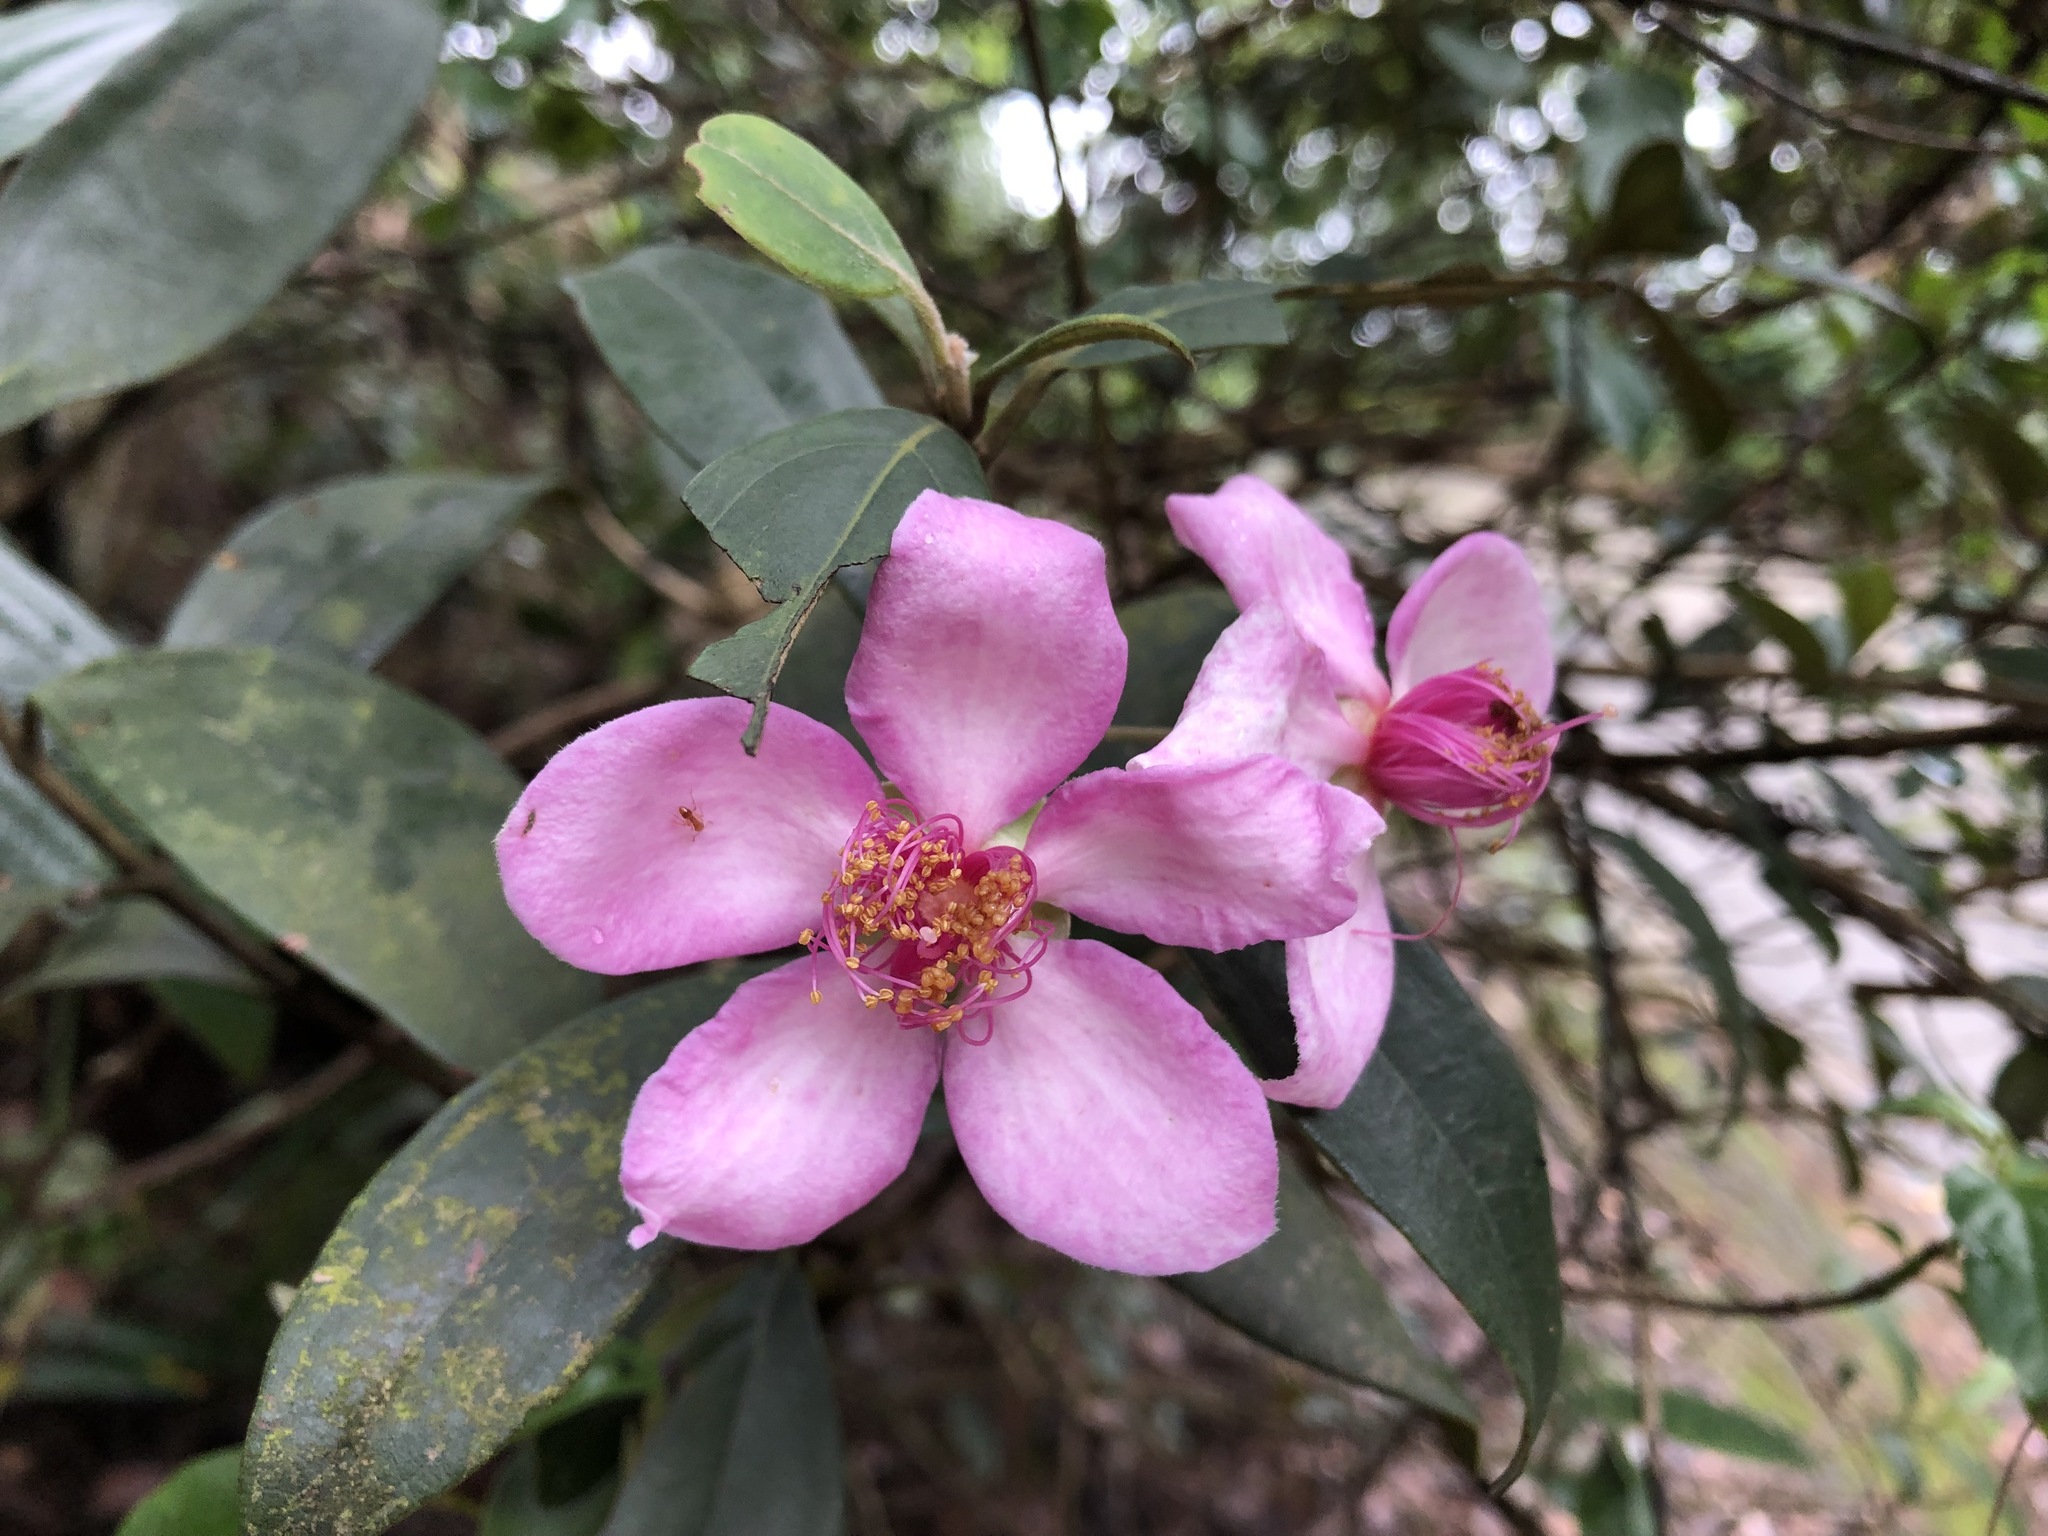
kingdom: Plantae
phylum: Tracheophyta
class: Magnoliopsida
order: Myrtales
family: Myrtaceae
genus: Rhodomyrtus
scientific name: Rhodomyrtus tomentosa
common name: Rose myrtle
